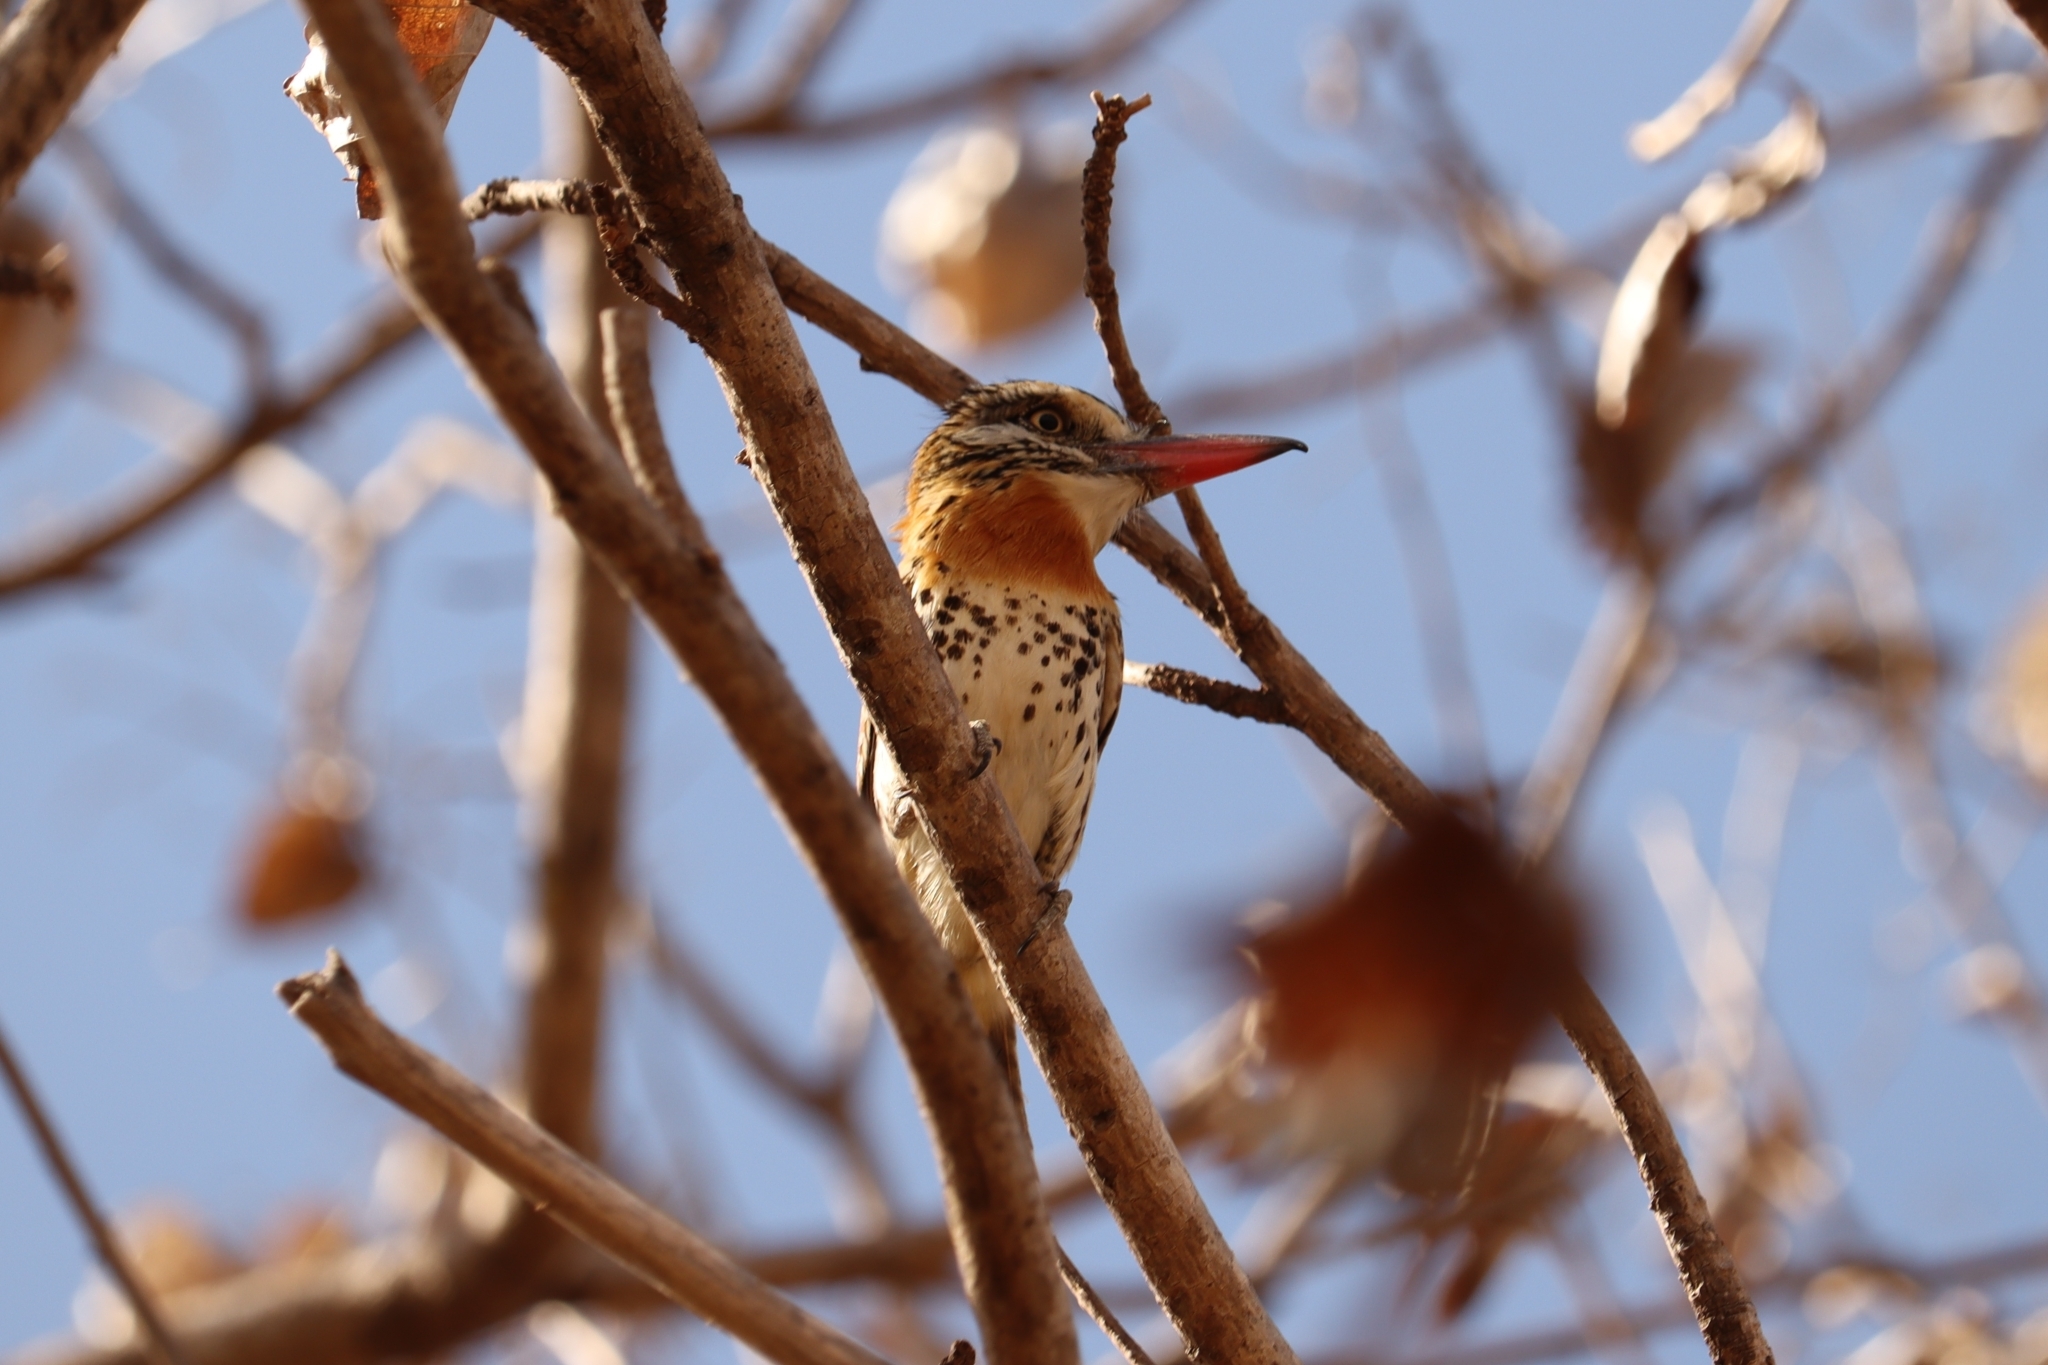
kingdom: Animalia
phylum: Chordata
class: Aves
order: Piciformes
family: Bucconidae
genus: Nystalus
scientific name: Nystalus maculatus
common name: Caatinga puffbird
